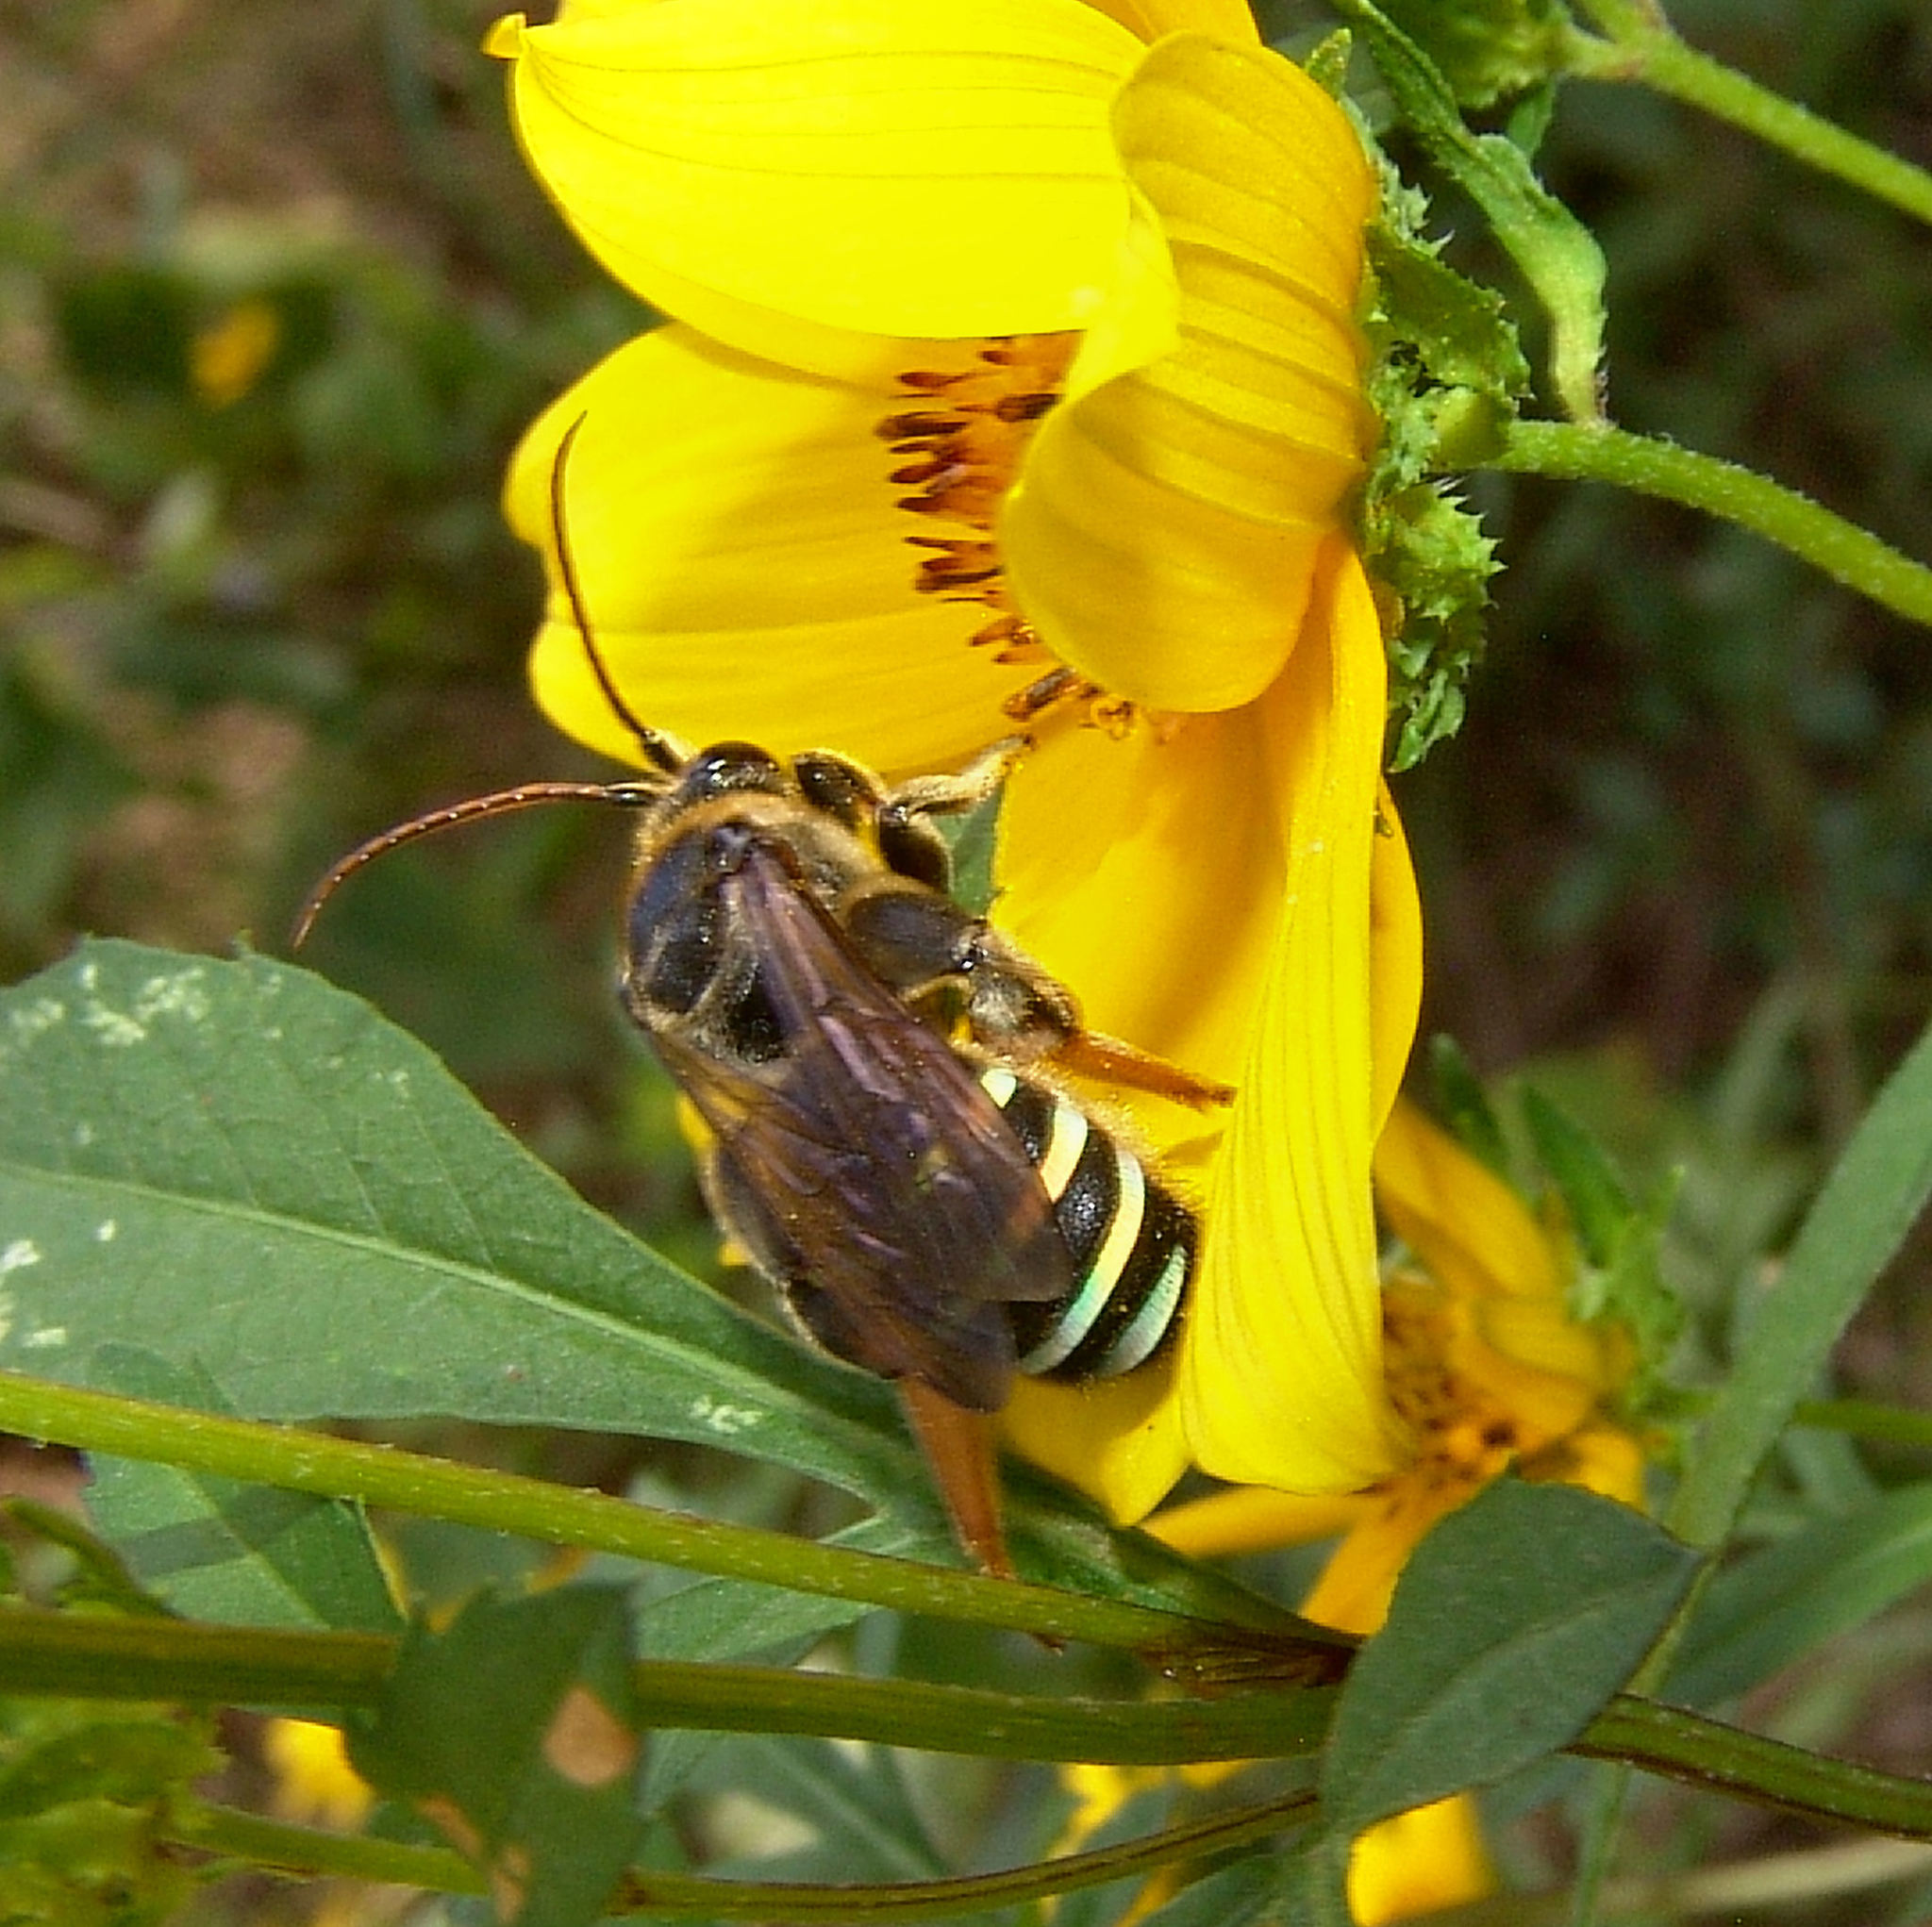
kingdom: Animalia
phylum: Arthropoda
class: Insecta
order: Hymenoptera
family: Halictidae
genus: Nomia
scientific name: Nomia nortoni
